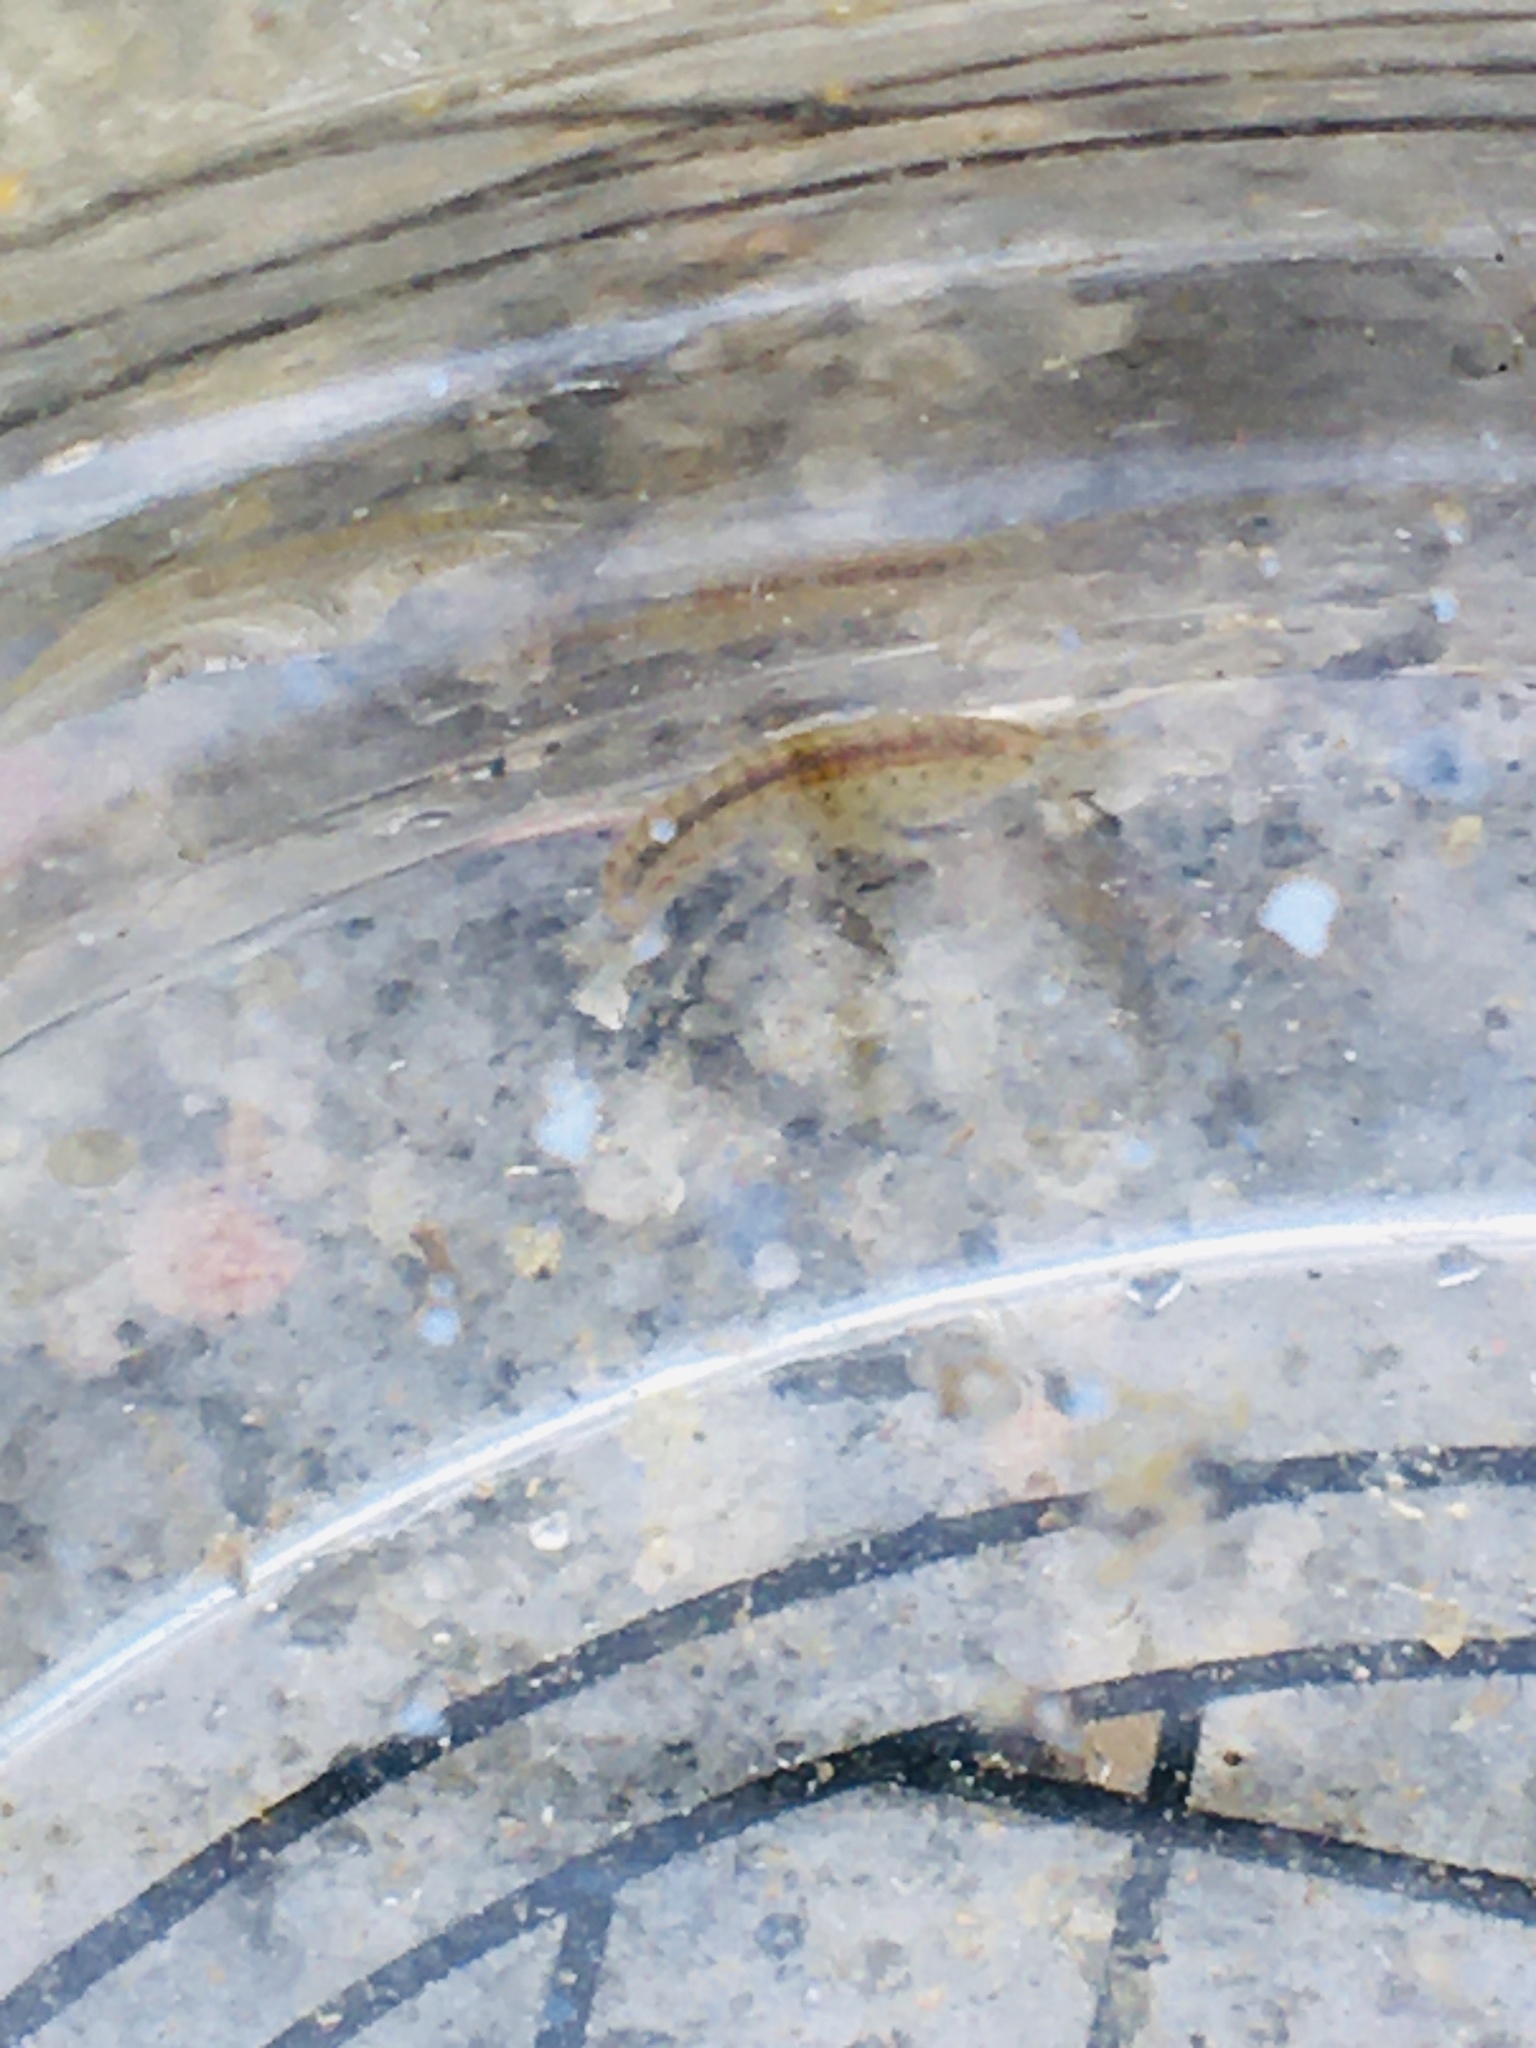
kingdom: Animalia
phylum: Arthropoda
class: Malacostraca
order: Amphipoda
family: Gammaridae
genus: Gammarus
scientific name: Gammarus fasciatus
